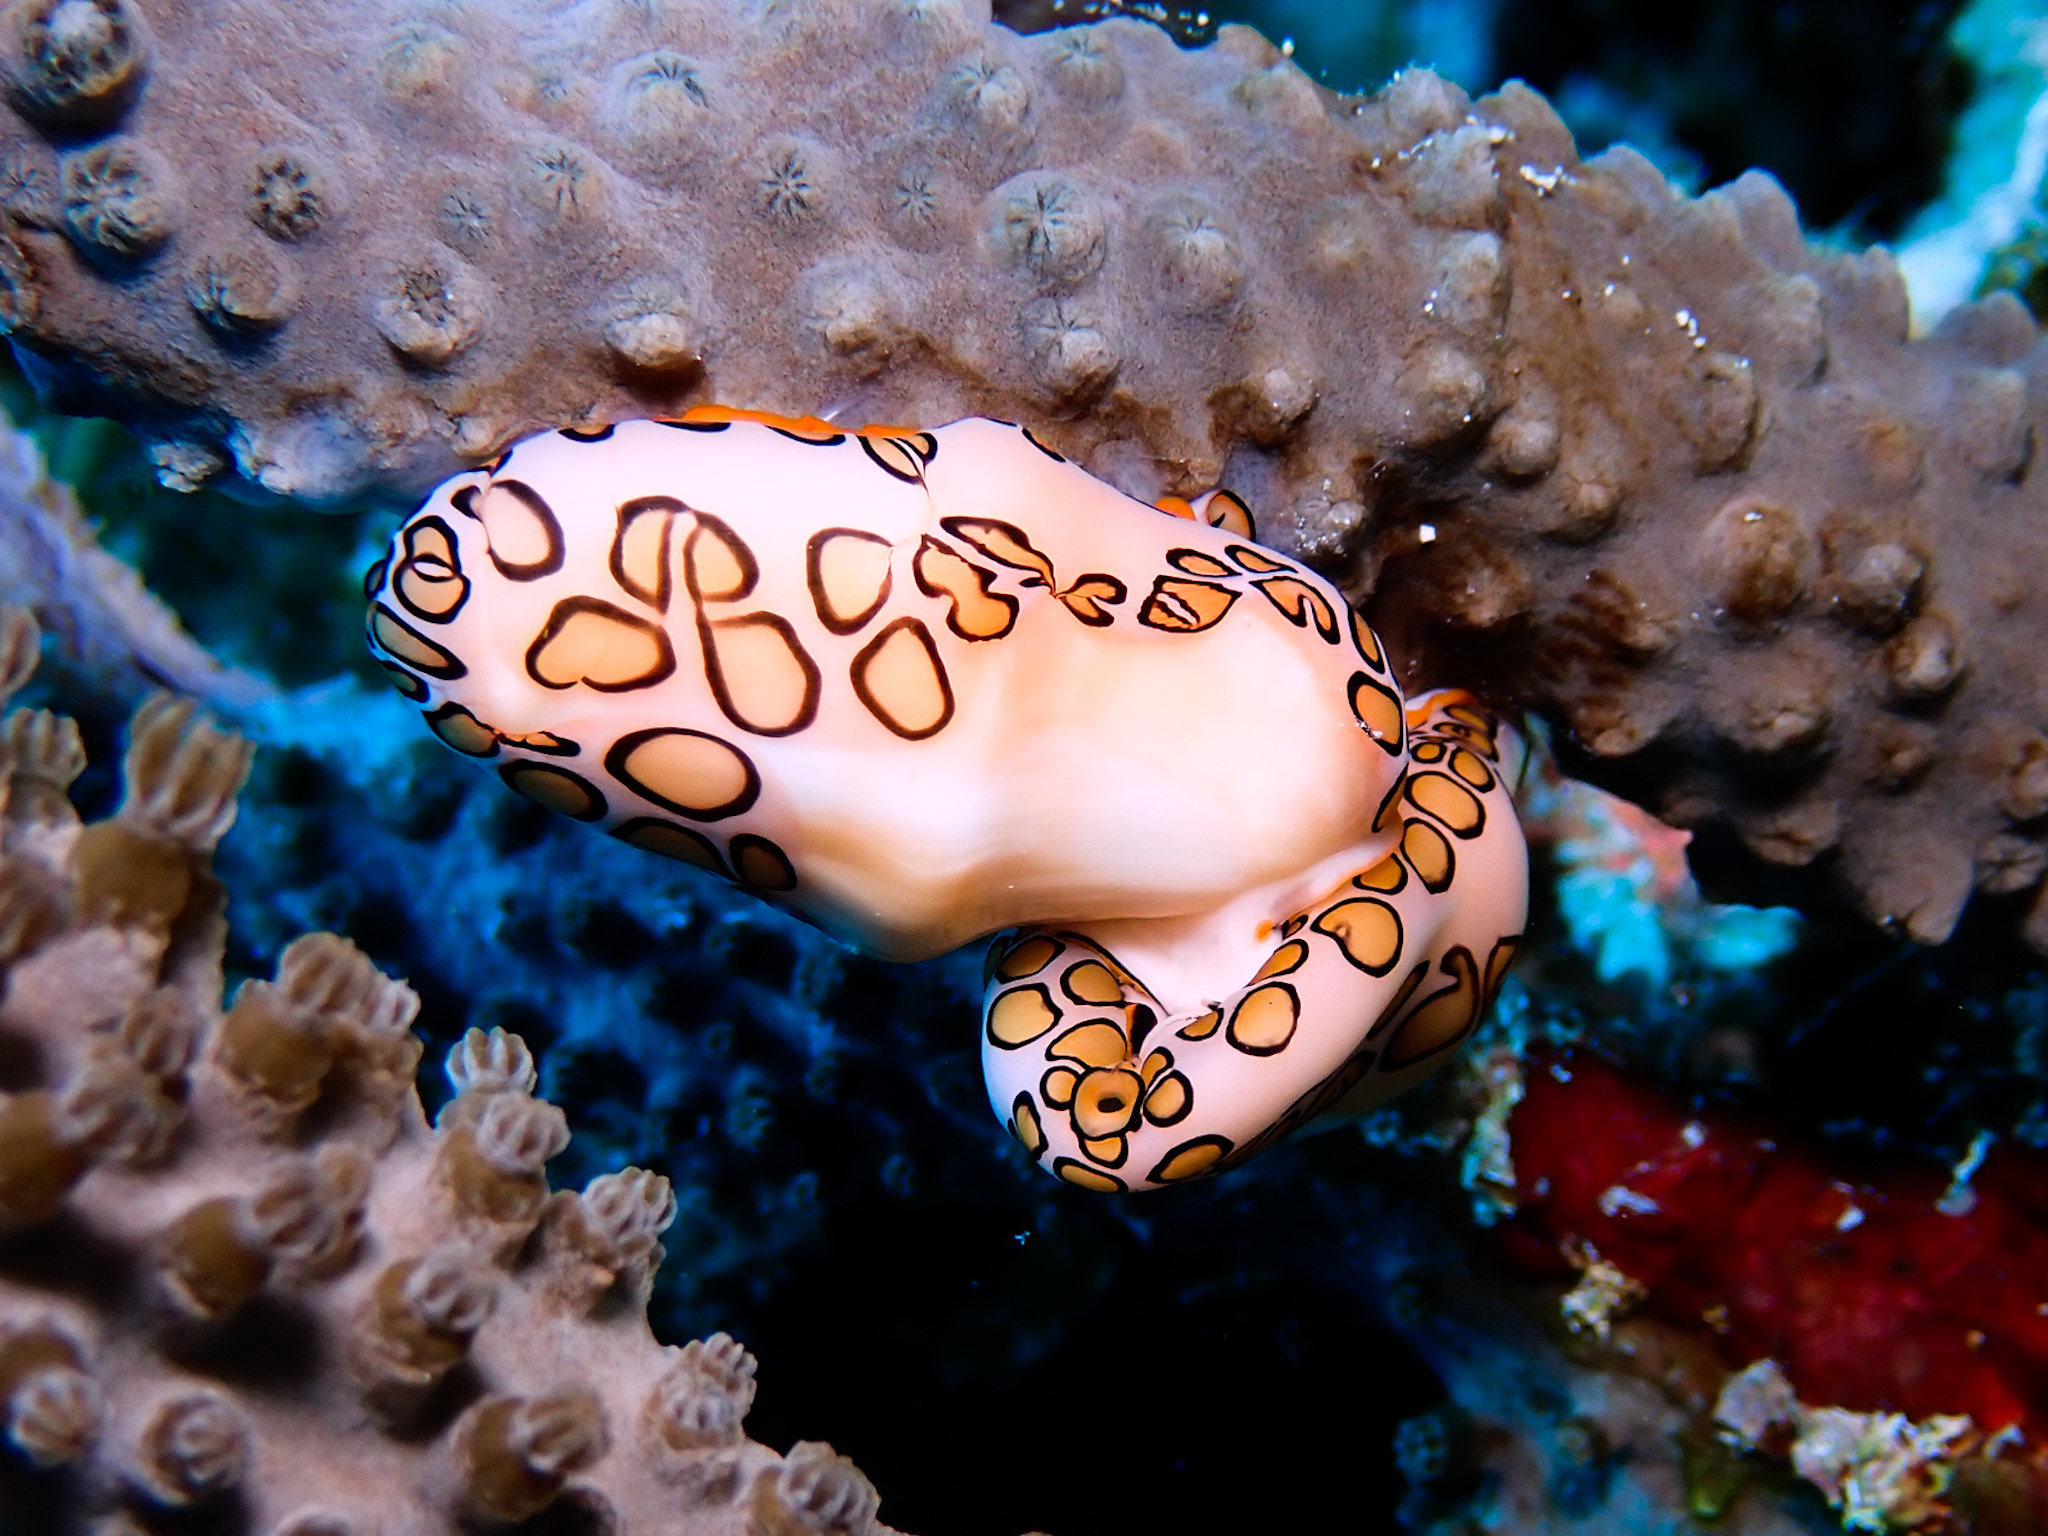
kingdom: Animalia
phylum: Mollusca
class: Gastropoda
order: Littorinimorpha
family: Ovulidae
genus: Cyphoma
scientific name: Cyphoma gibbosum
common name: Flamingo tongue
